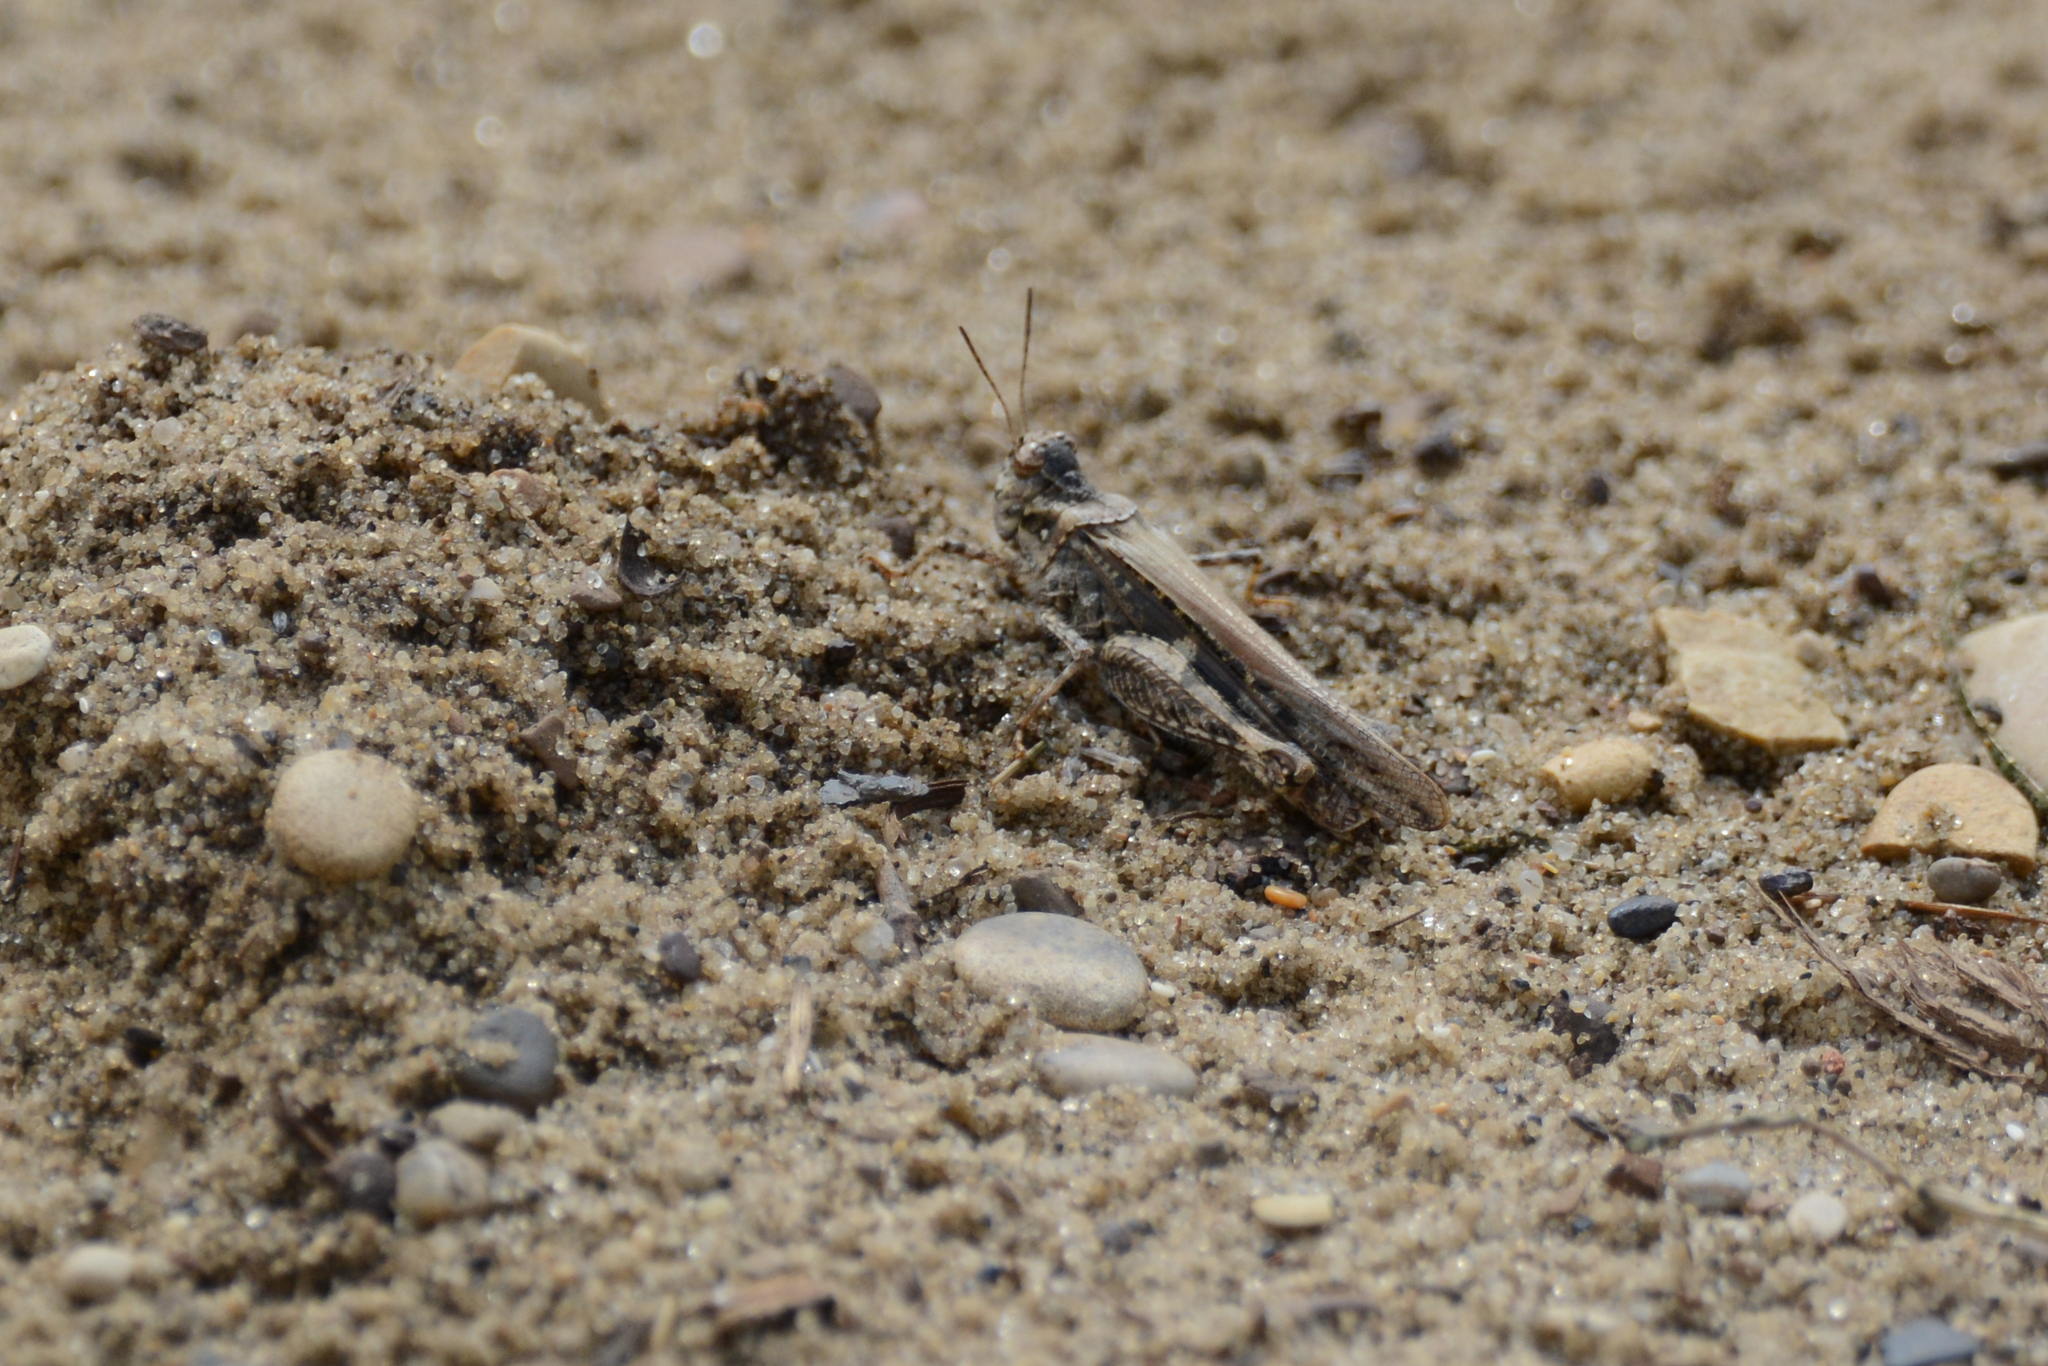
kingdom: Animalia
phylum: Arthropoda
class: Insecta
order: Orthoptera
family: Acrididae
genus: Acrotylus
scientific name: Acrotylus insubricus
